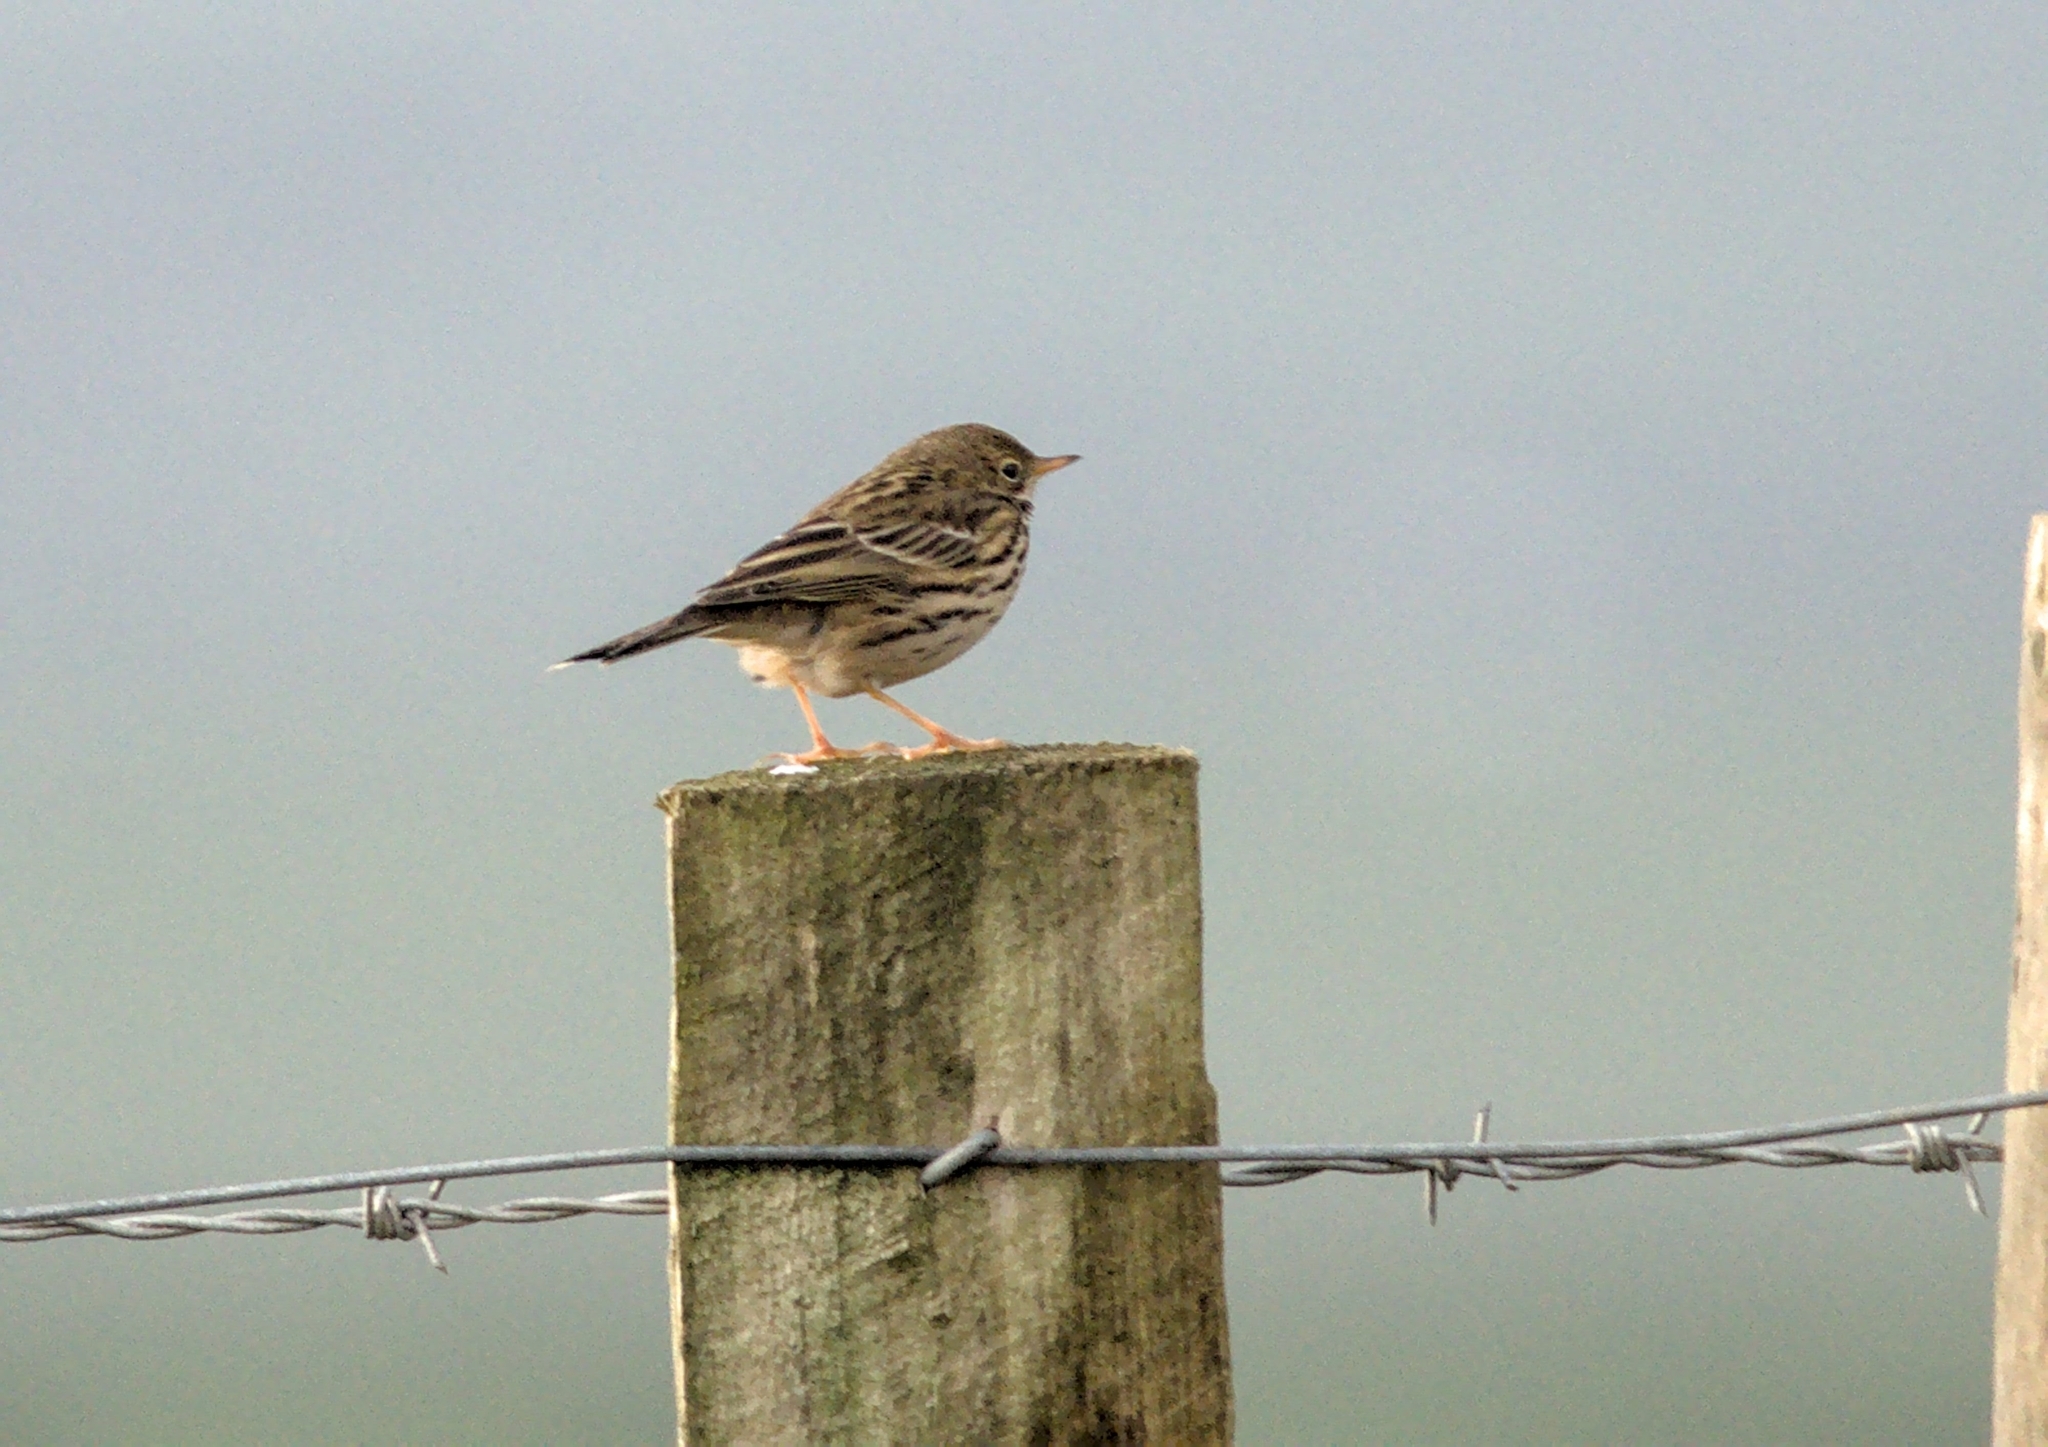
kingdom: Animalia
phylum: Chordata
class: Aves
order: Passeriformes
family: Motacillidae
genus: Anthus
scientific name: Anthus pratensis
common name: Meadow pipit
